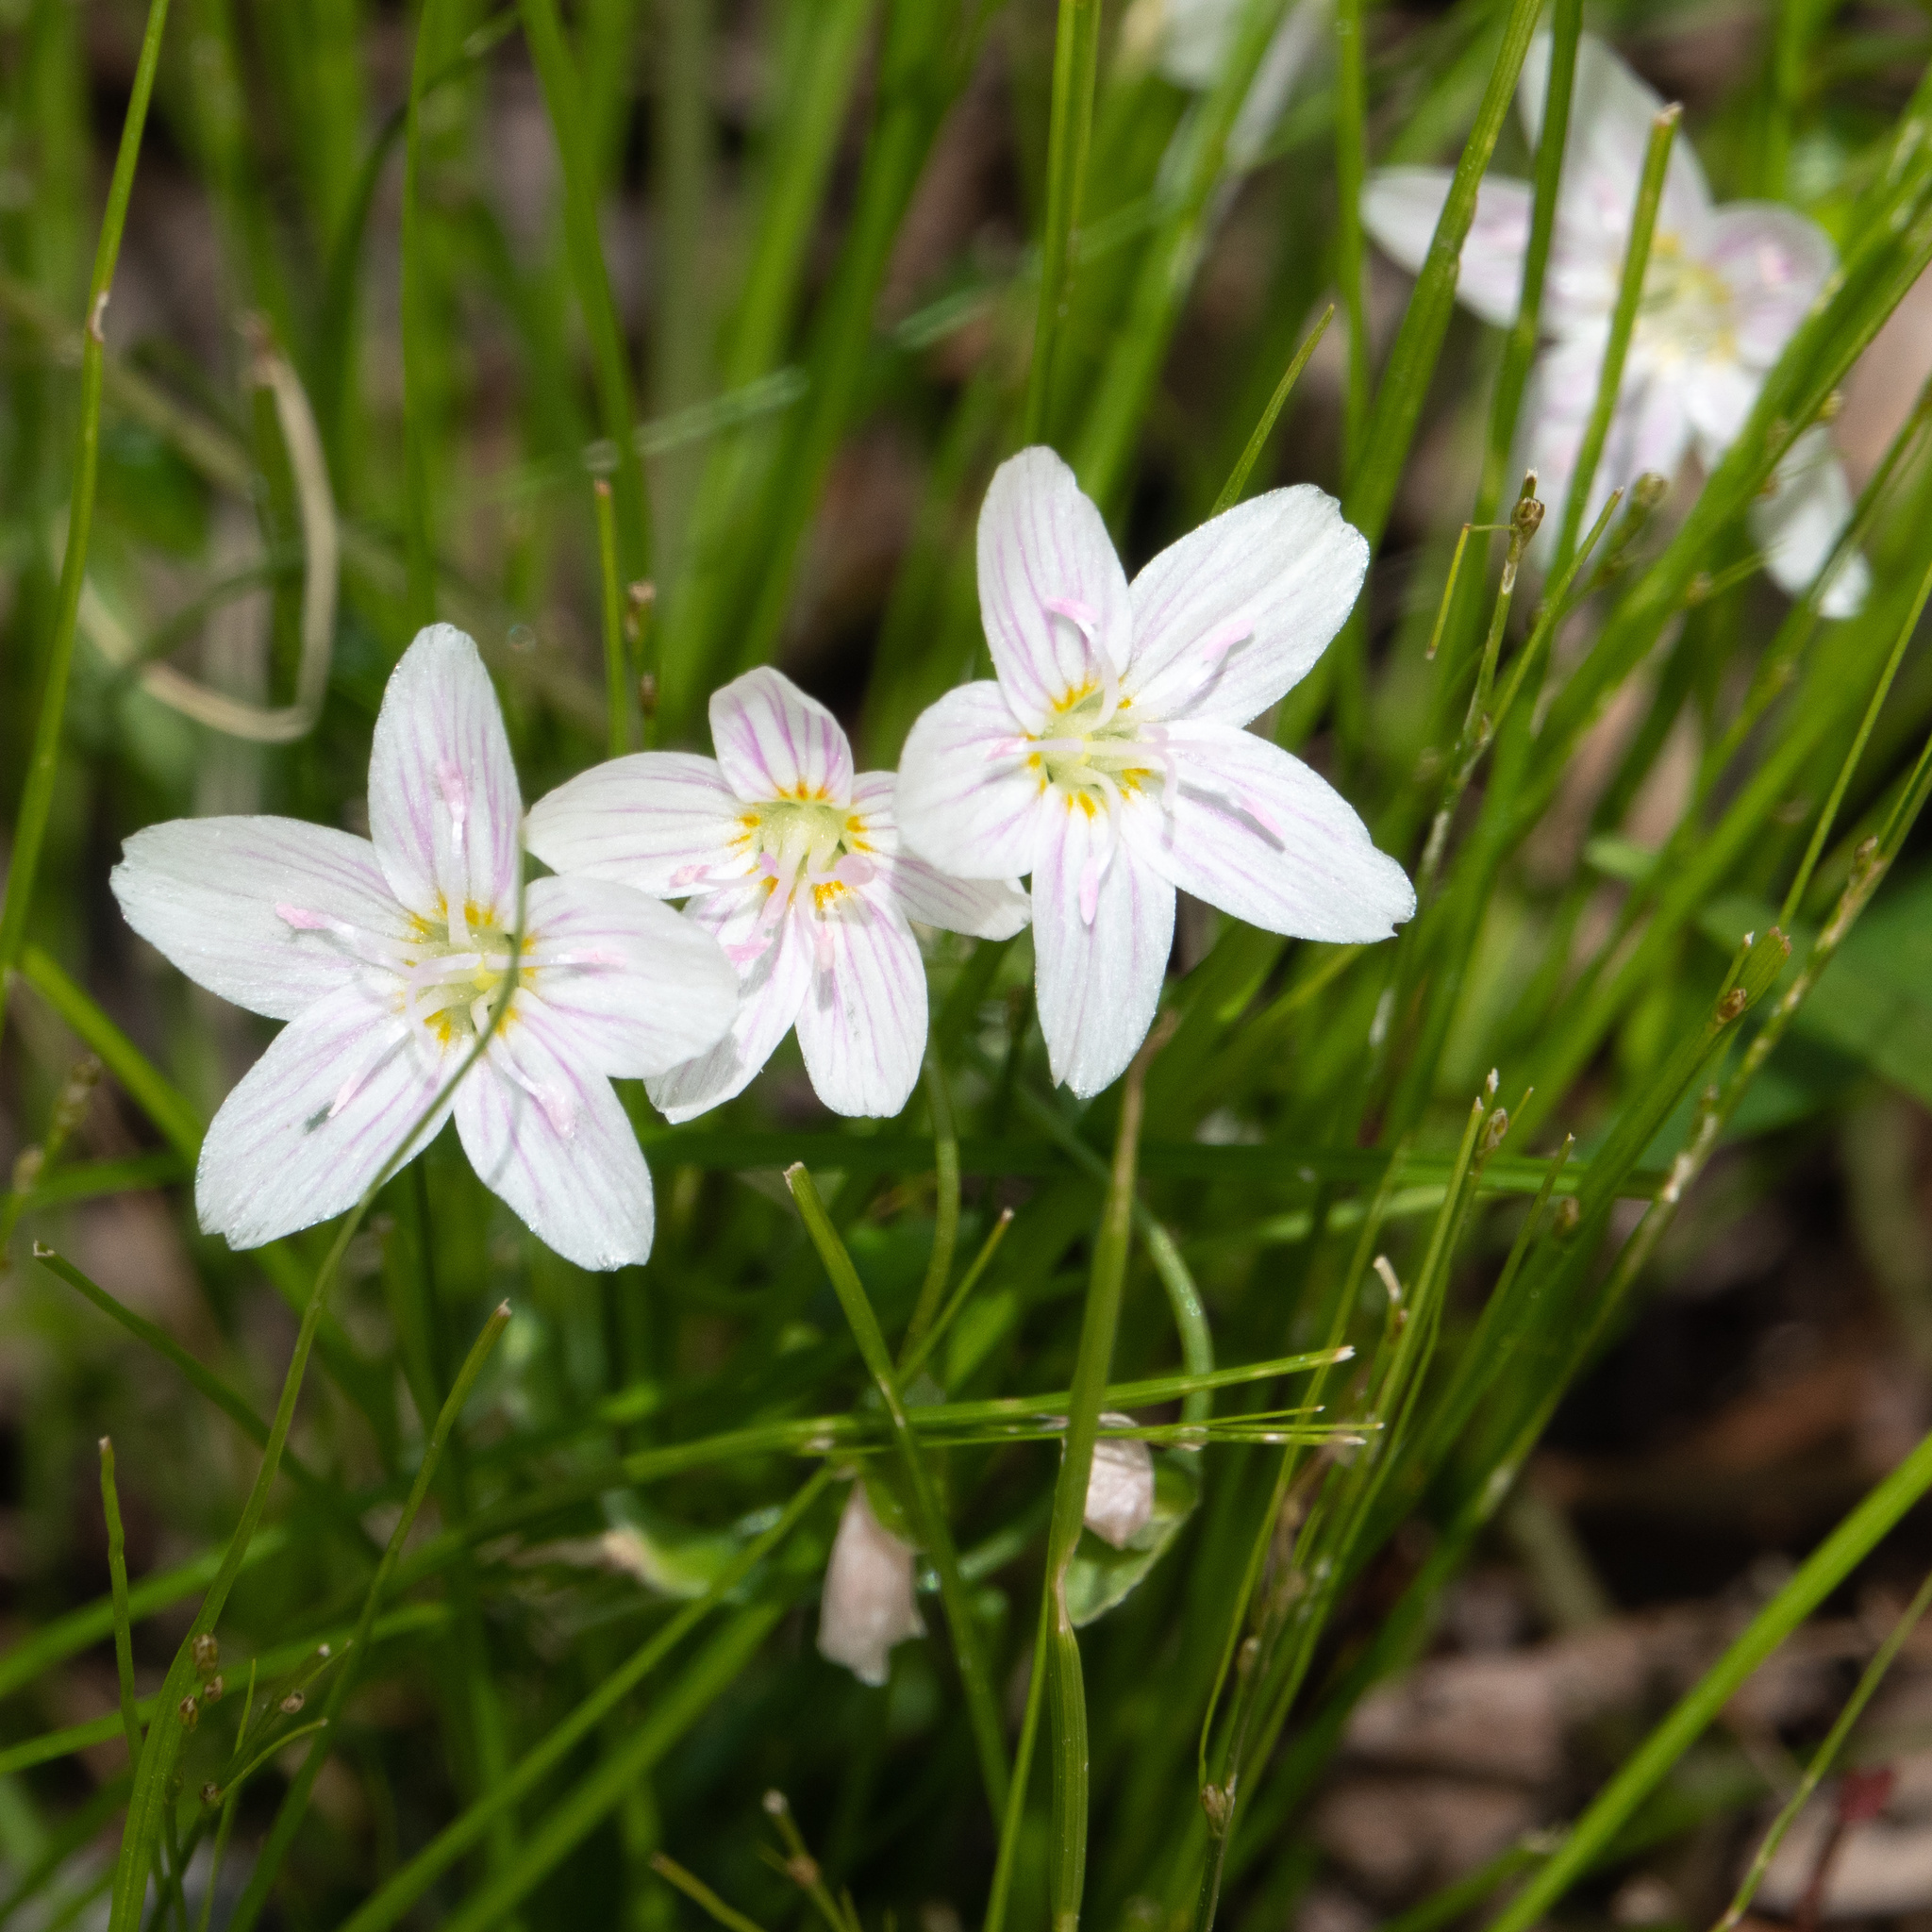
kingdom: Plantae
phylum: Tracheophyta
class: Magnoliopsida
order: Caryophyllales
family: Montiaceae
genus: Claytonia
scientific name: Claytonia virginica
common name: Virginia springbeauty
